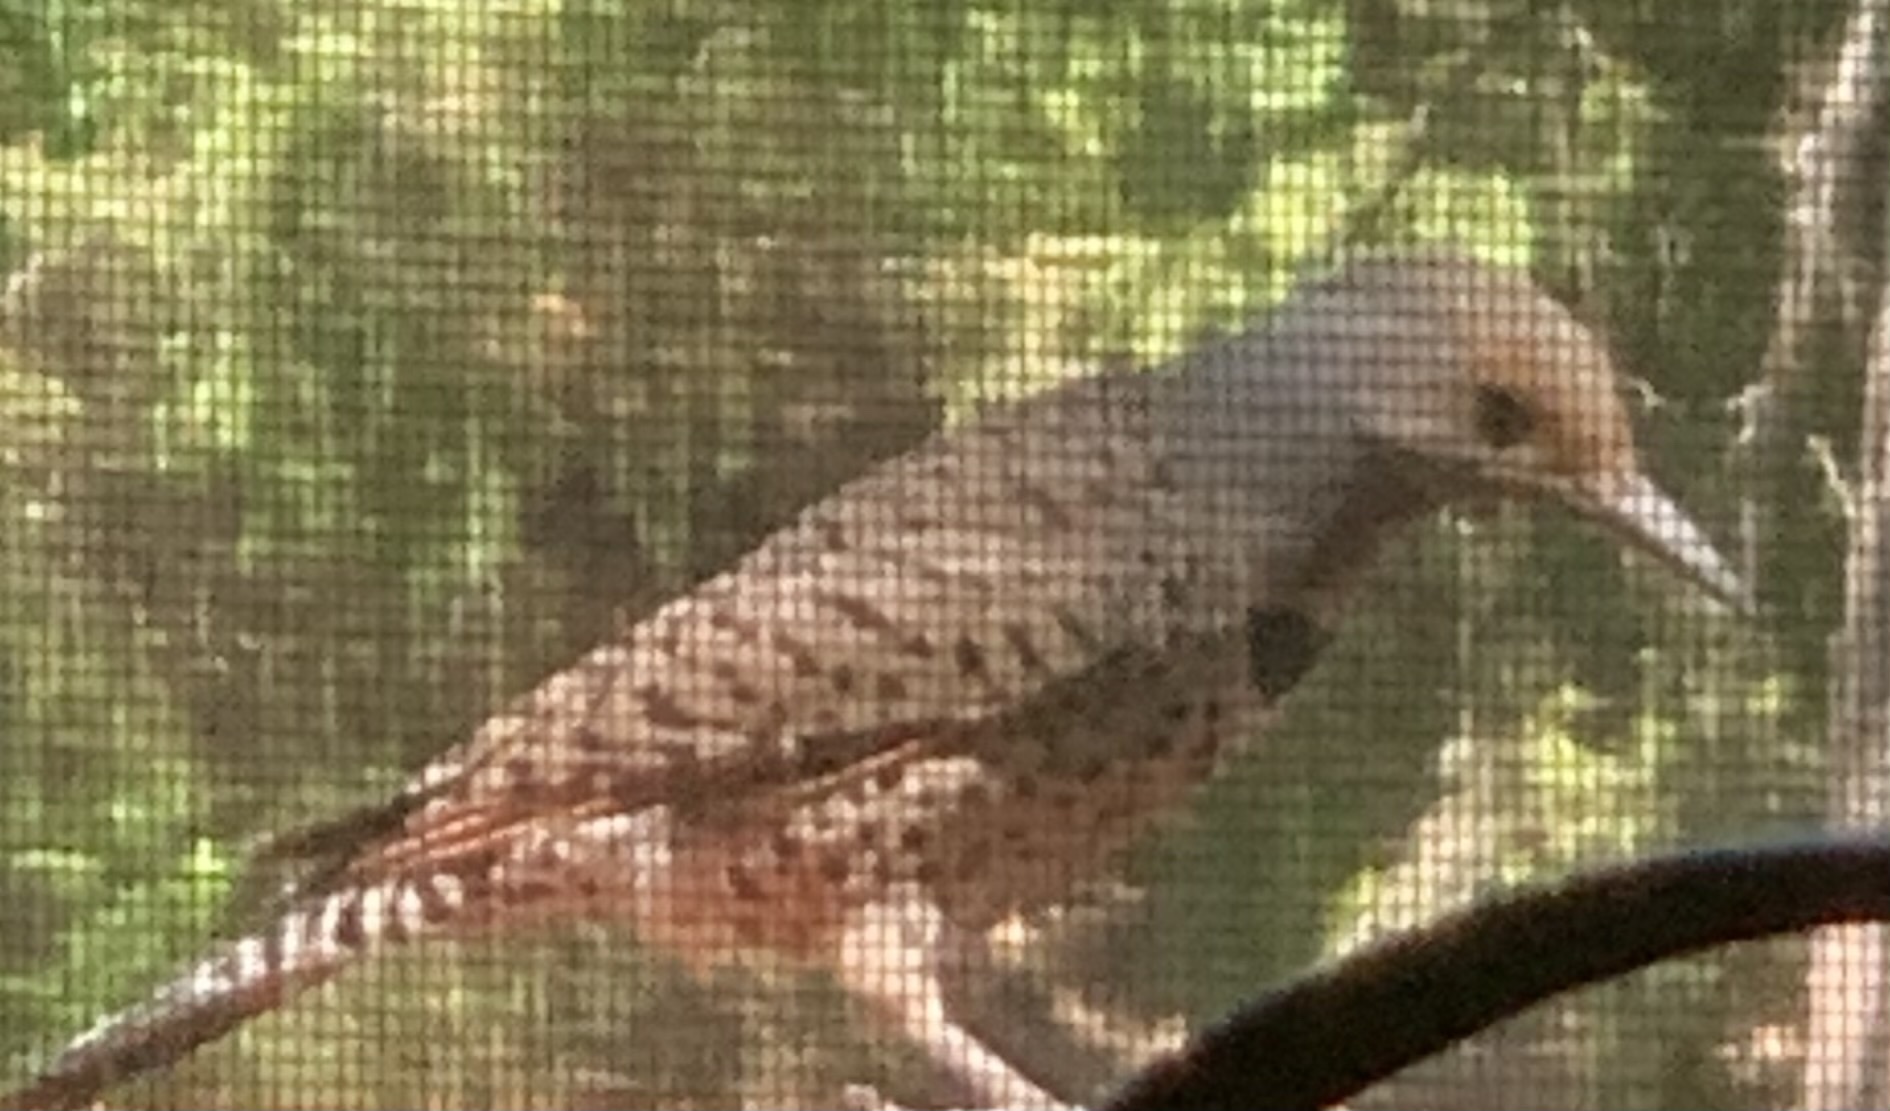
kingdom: Animalia
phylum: Chordata
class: Aves
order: Piciformes
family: Picidae
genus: Colaptes
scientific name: Colaptes auratus
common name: Northern flicker
